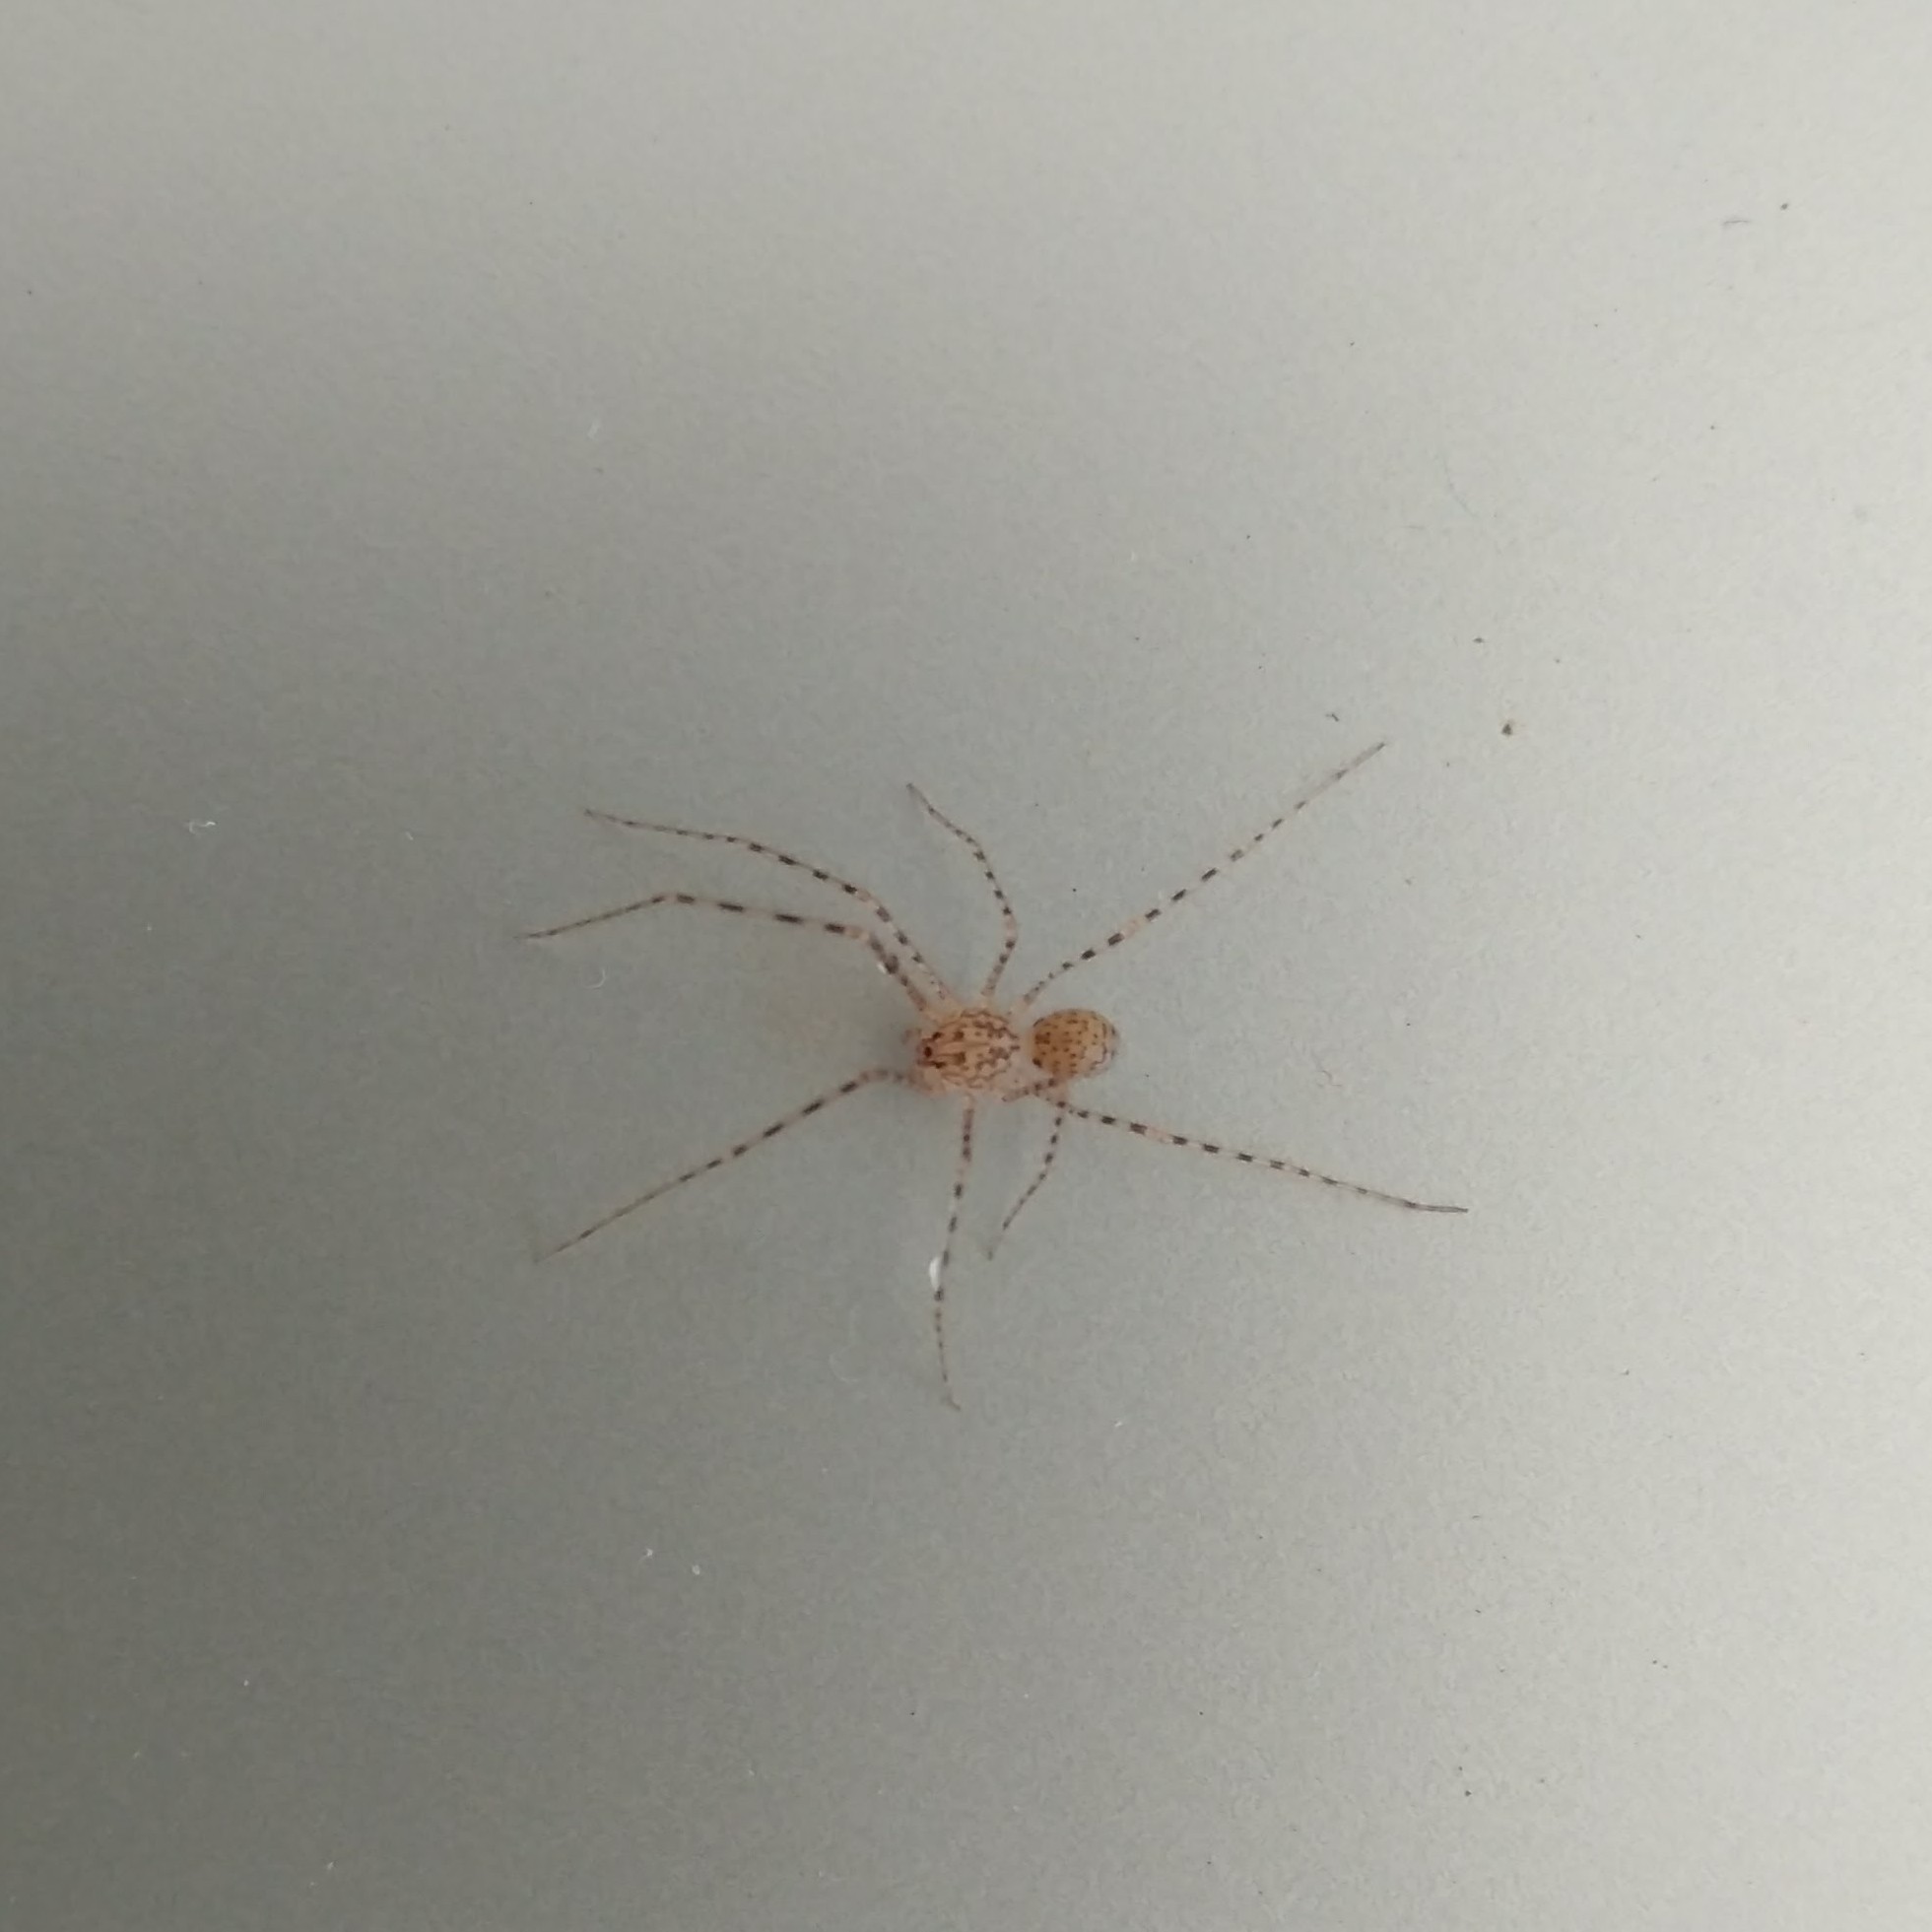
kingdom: Animalia
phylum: Arthropoda
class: Arachnida
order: Araneae
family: Scytodidae
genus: Scytodes
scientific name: Scytodes globula
